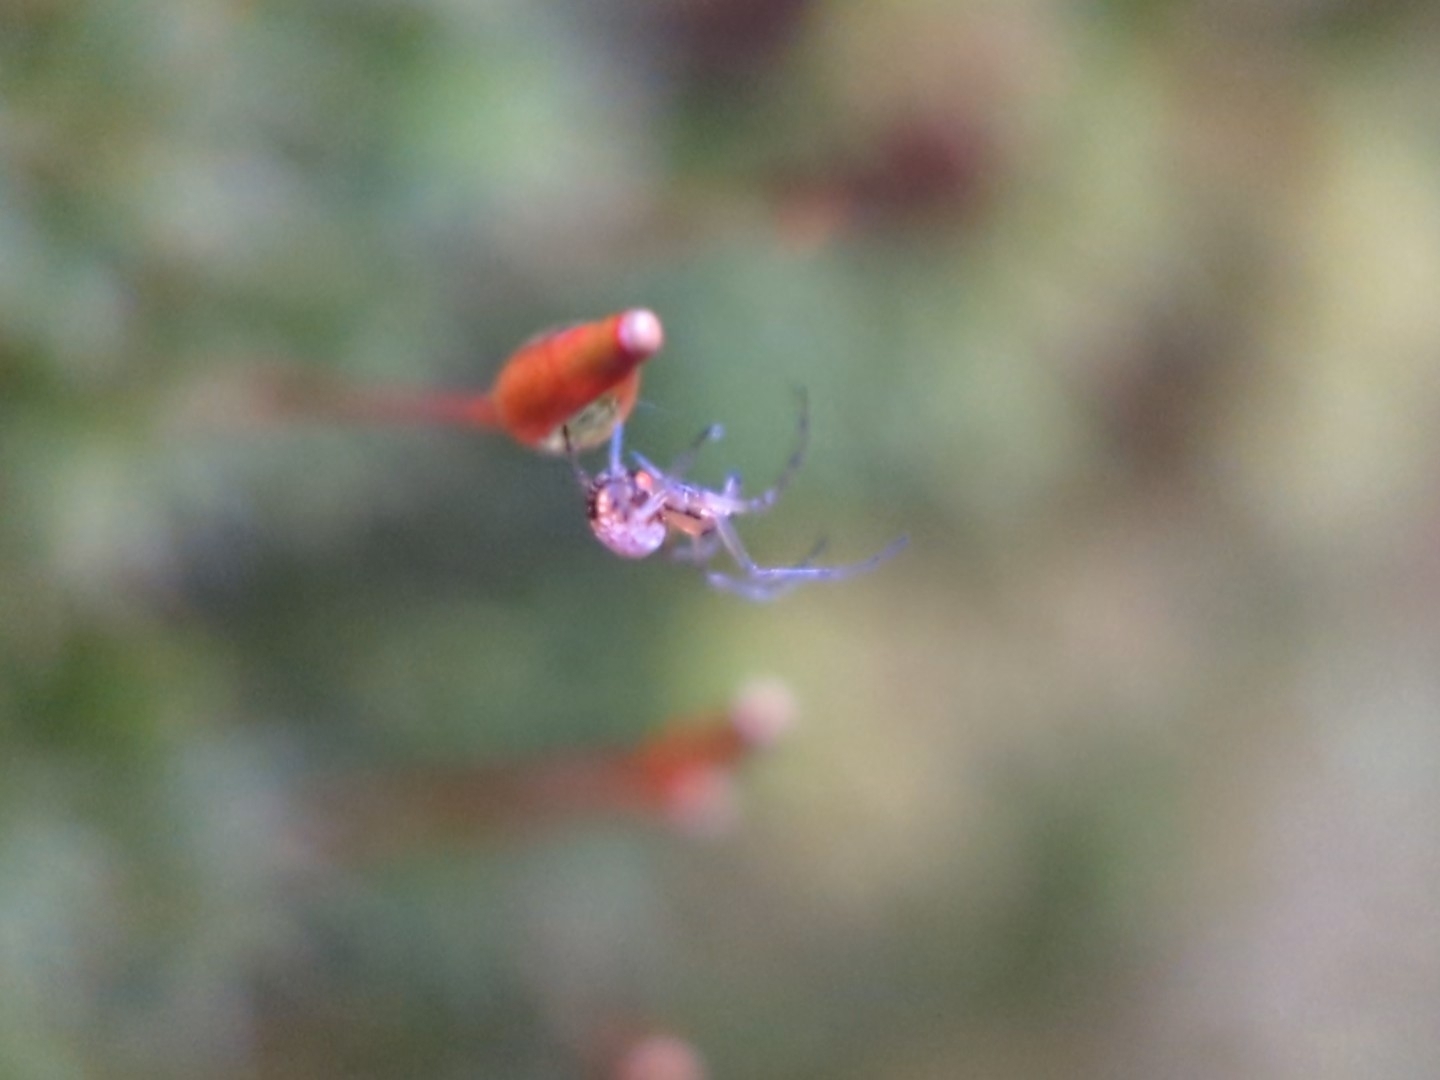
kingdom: Animalia
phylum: Arthropoda
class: Arachnida
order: Araneae
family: Tetragnathidae
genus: Leucauge
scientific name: Leucauge venusta
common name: Longjawed orb weavers
